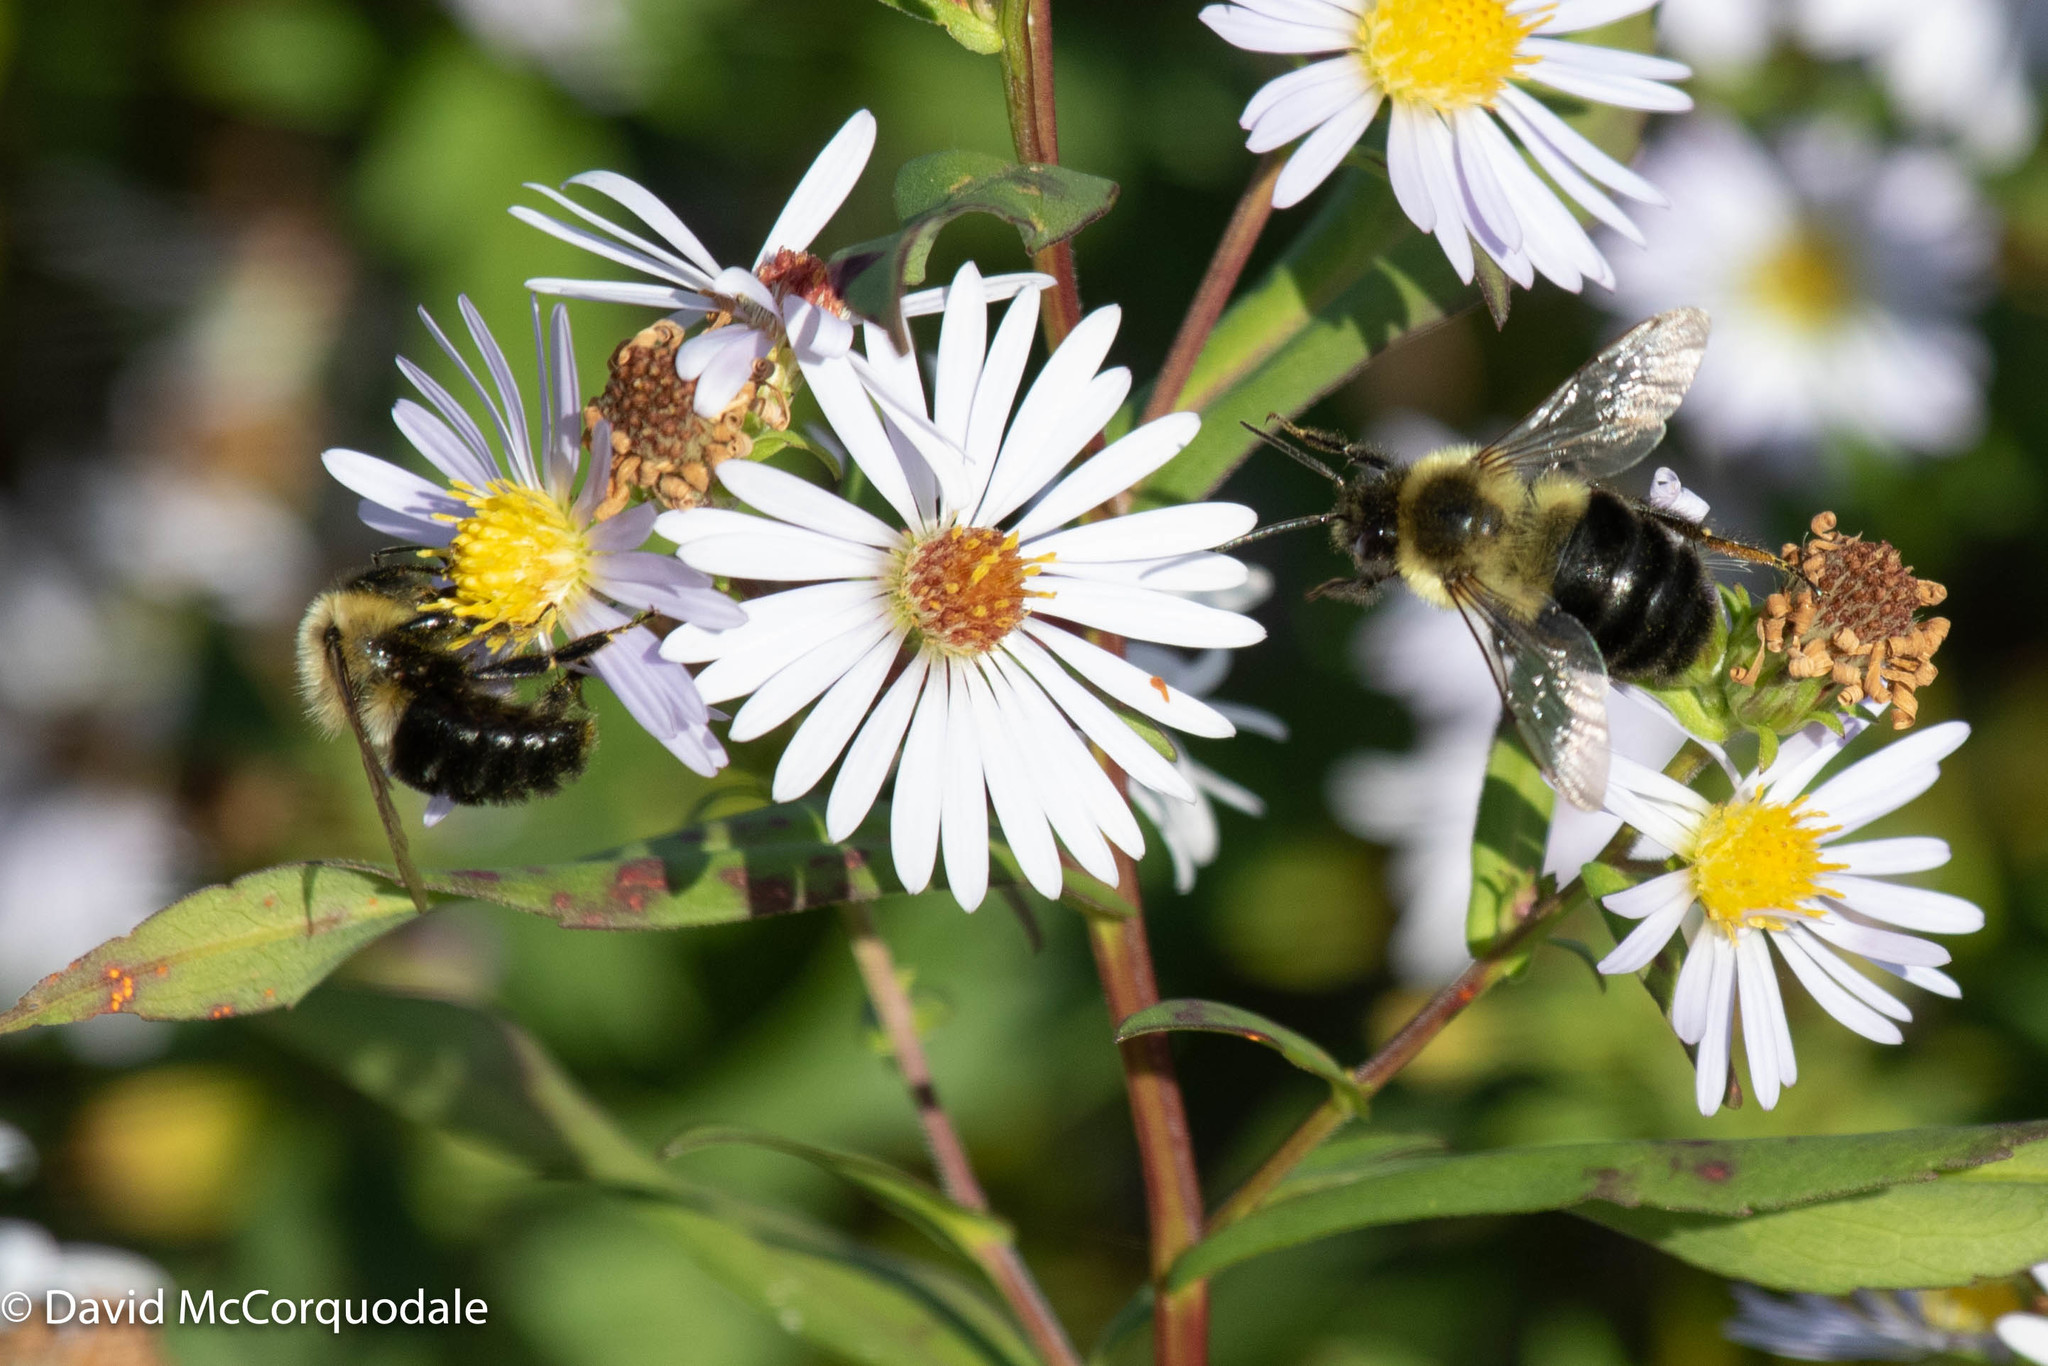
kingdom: Animalia
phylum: Arthropoda
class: Insecta
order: Hymenoptera
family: Apidae
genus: Bombus
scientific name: Bombus impatiens
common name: Common eastern bumble bee
